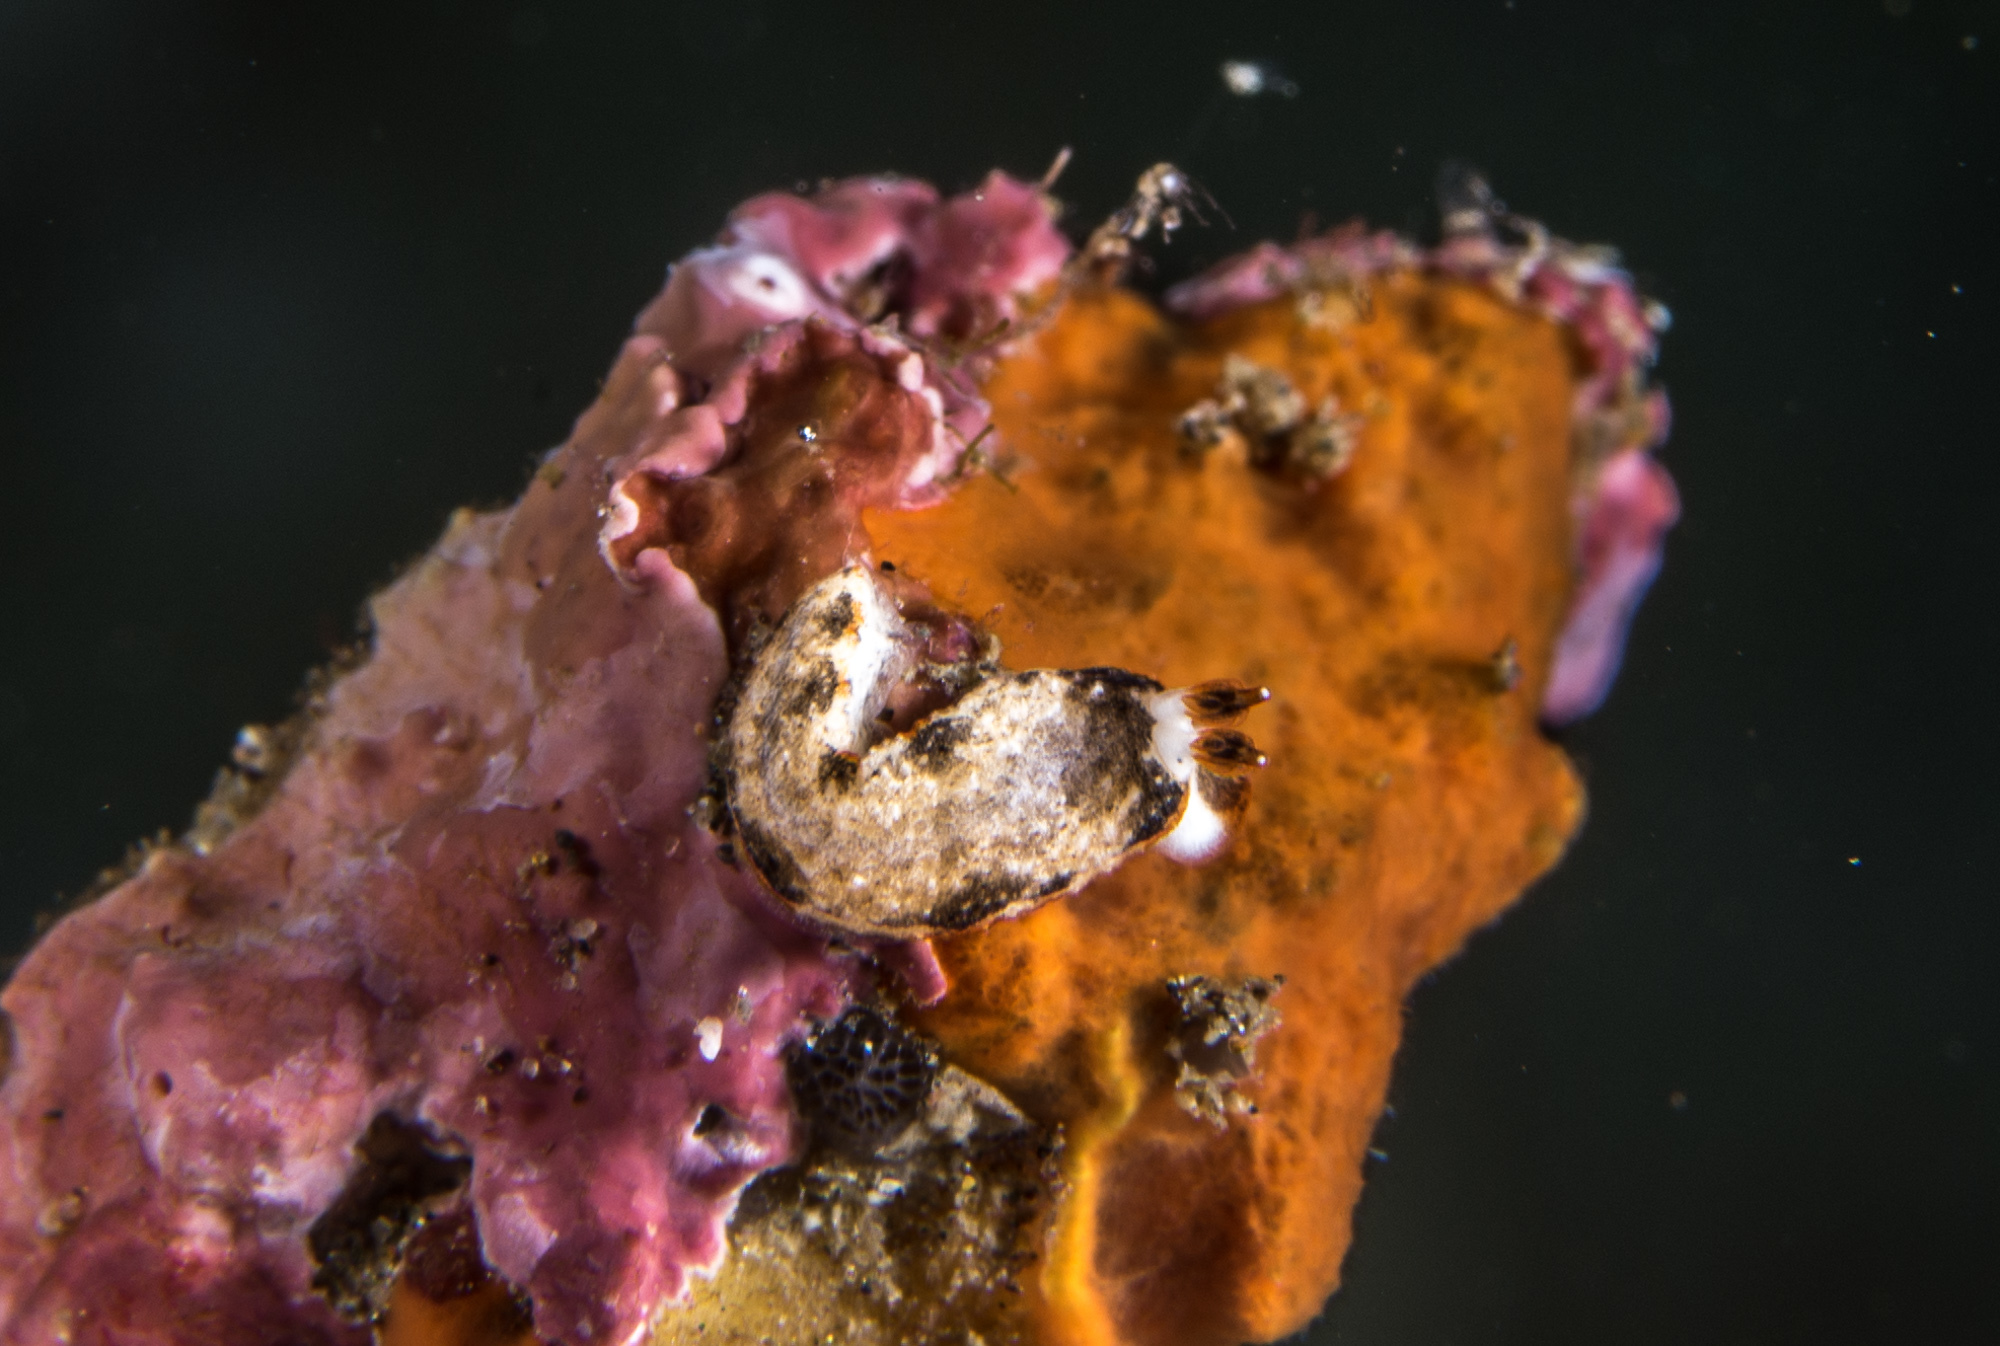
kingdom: Animalia
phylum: Mollusca
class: Gastropoda
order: Nudibranchia
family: Arminidae
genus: Dermatobranchus
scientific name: Dermatobranchus fortunatus
